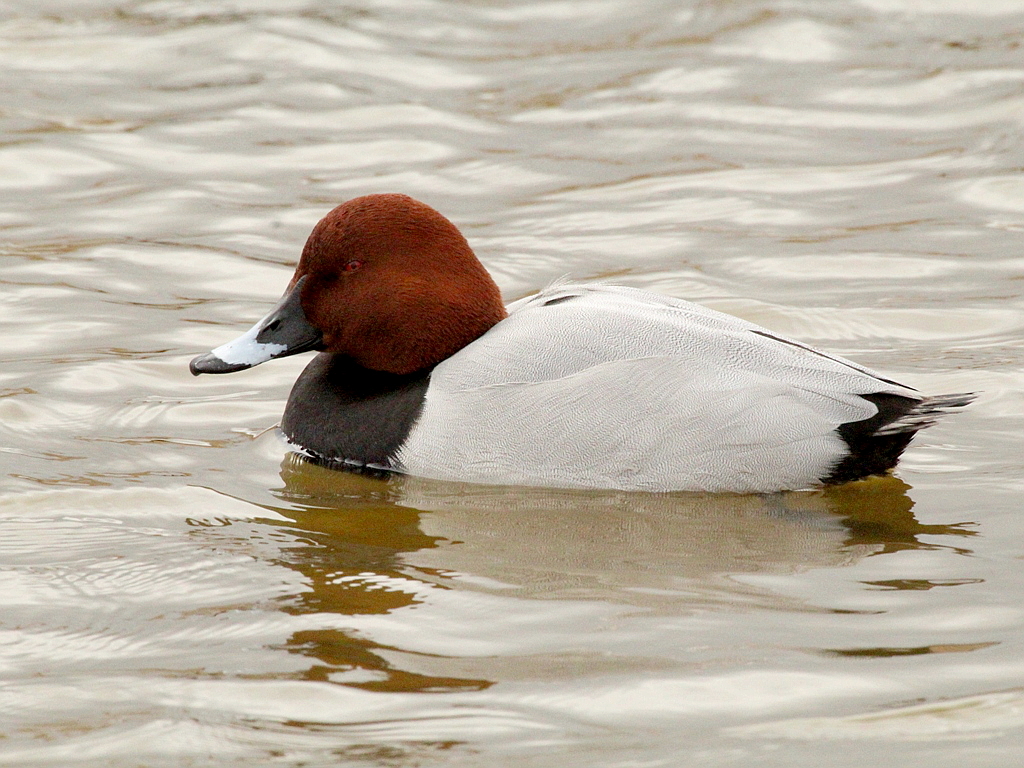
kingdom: Animalia
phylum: Chordata
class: Aves
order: Anseriformes
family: Anatidae
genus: Aythya
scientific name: Aythya ferina
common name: Common pochard
